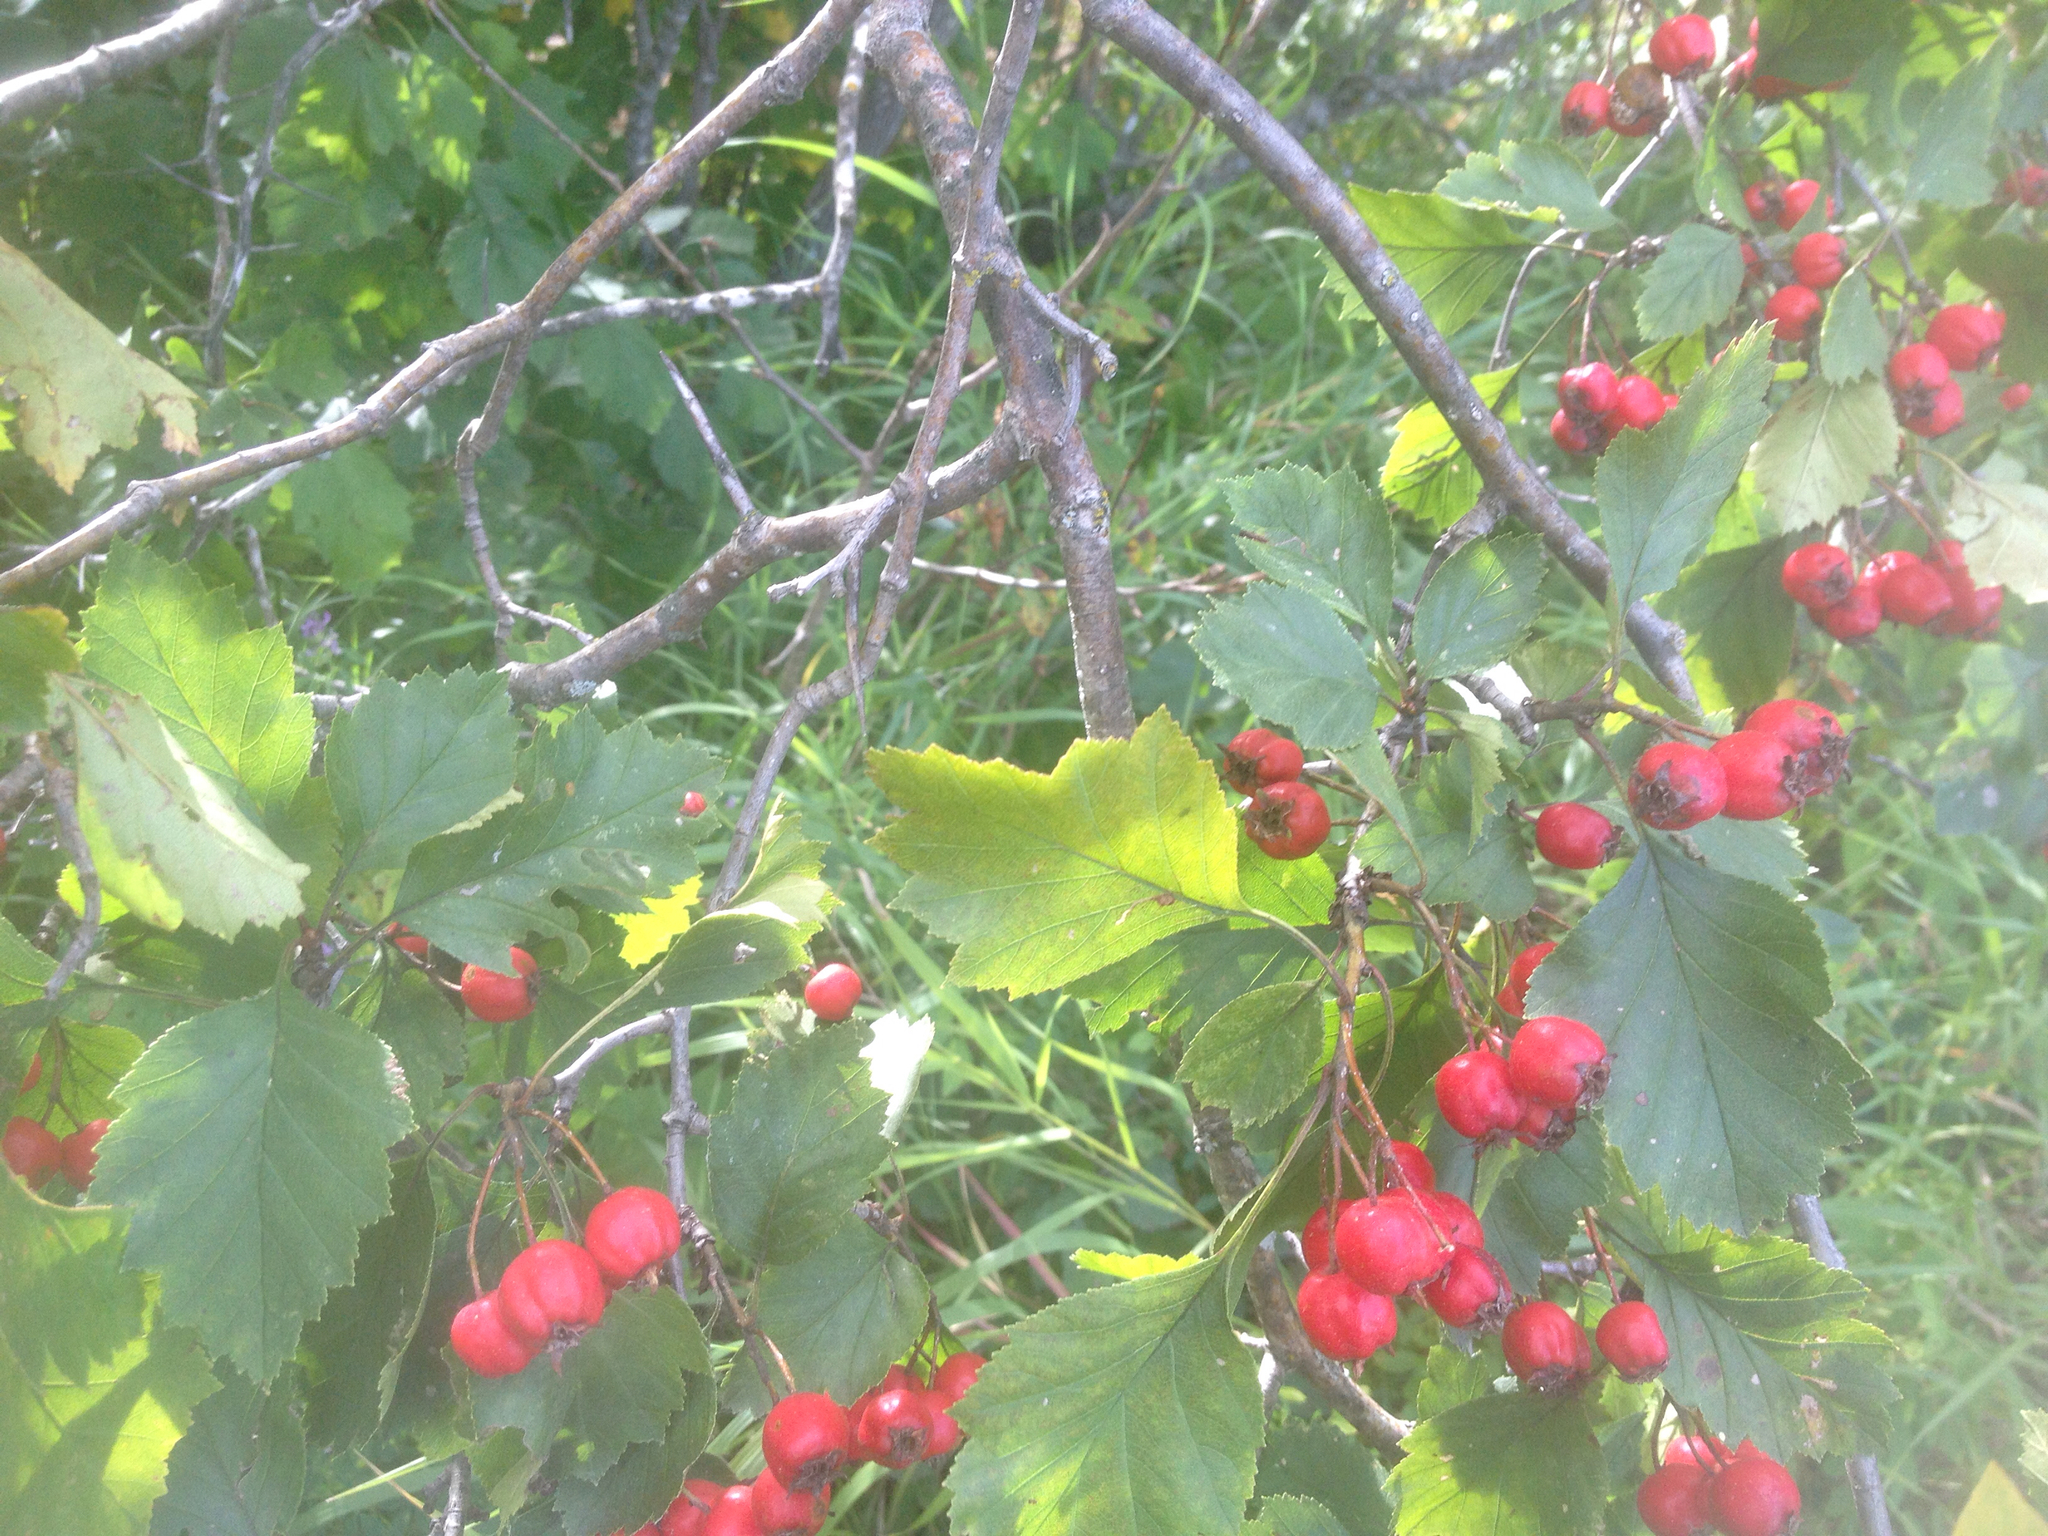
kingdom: Plantae
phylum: Tracheophyta
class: Magnoliopsida
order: Rosales
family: Rosaceae
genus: Crataegus
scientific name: Crataegus chrysocarpa
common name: Fire-berry hawthorn
